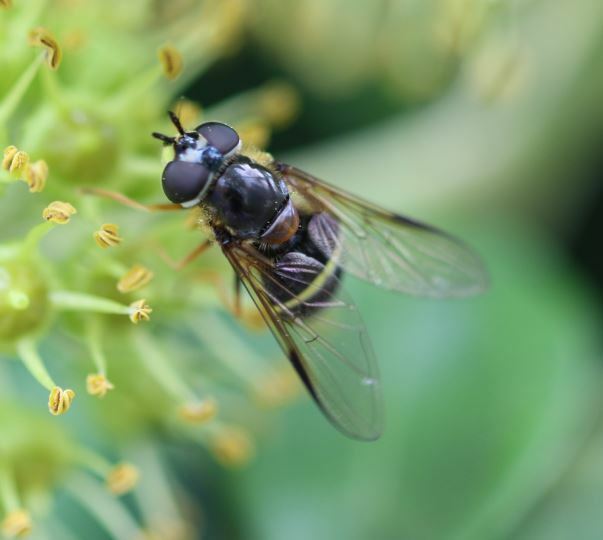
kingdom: Animalia
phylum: Arthropoda
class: Insecta
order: Diptera
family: Syrphidae
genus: Dasysyrphus
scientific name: Dasysyrphus tricinctus
